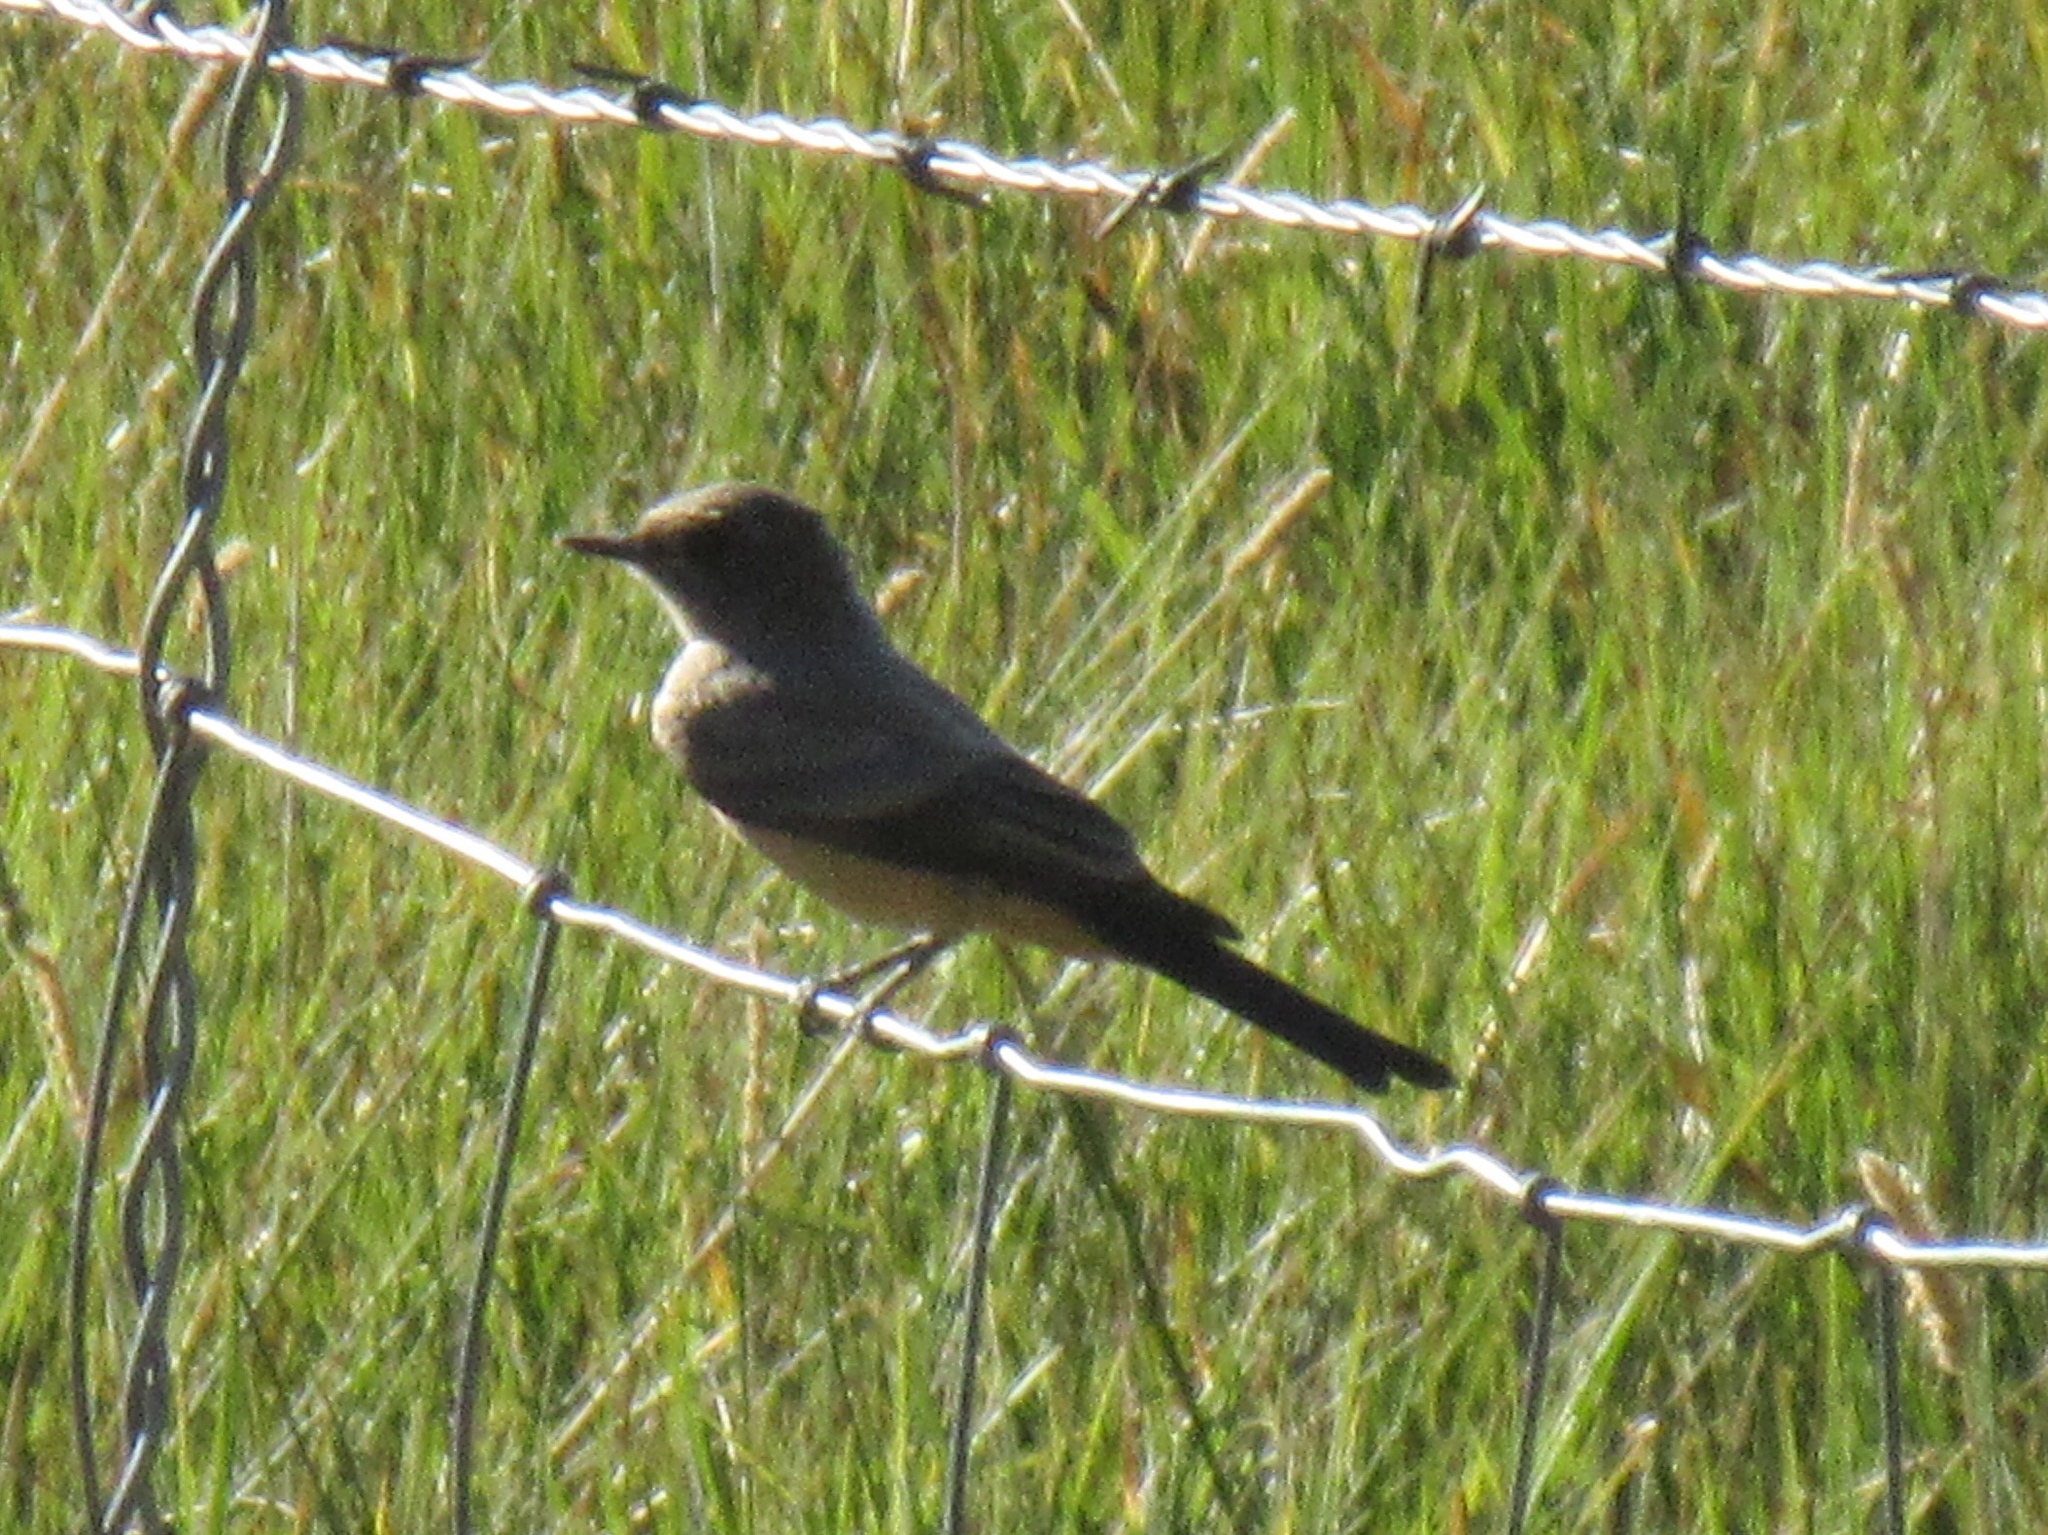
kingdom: Animalia
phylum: Chordata
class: Aves
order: Passeriformes
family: Tyrannidae
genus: Sayornis
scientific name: Sayornis saya
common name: Say's phoebe
